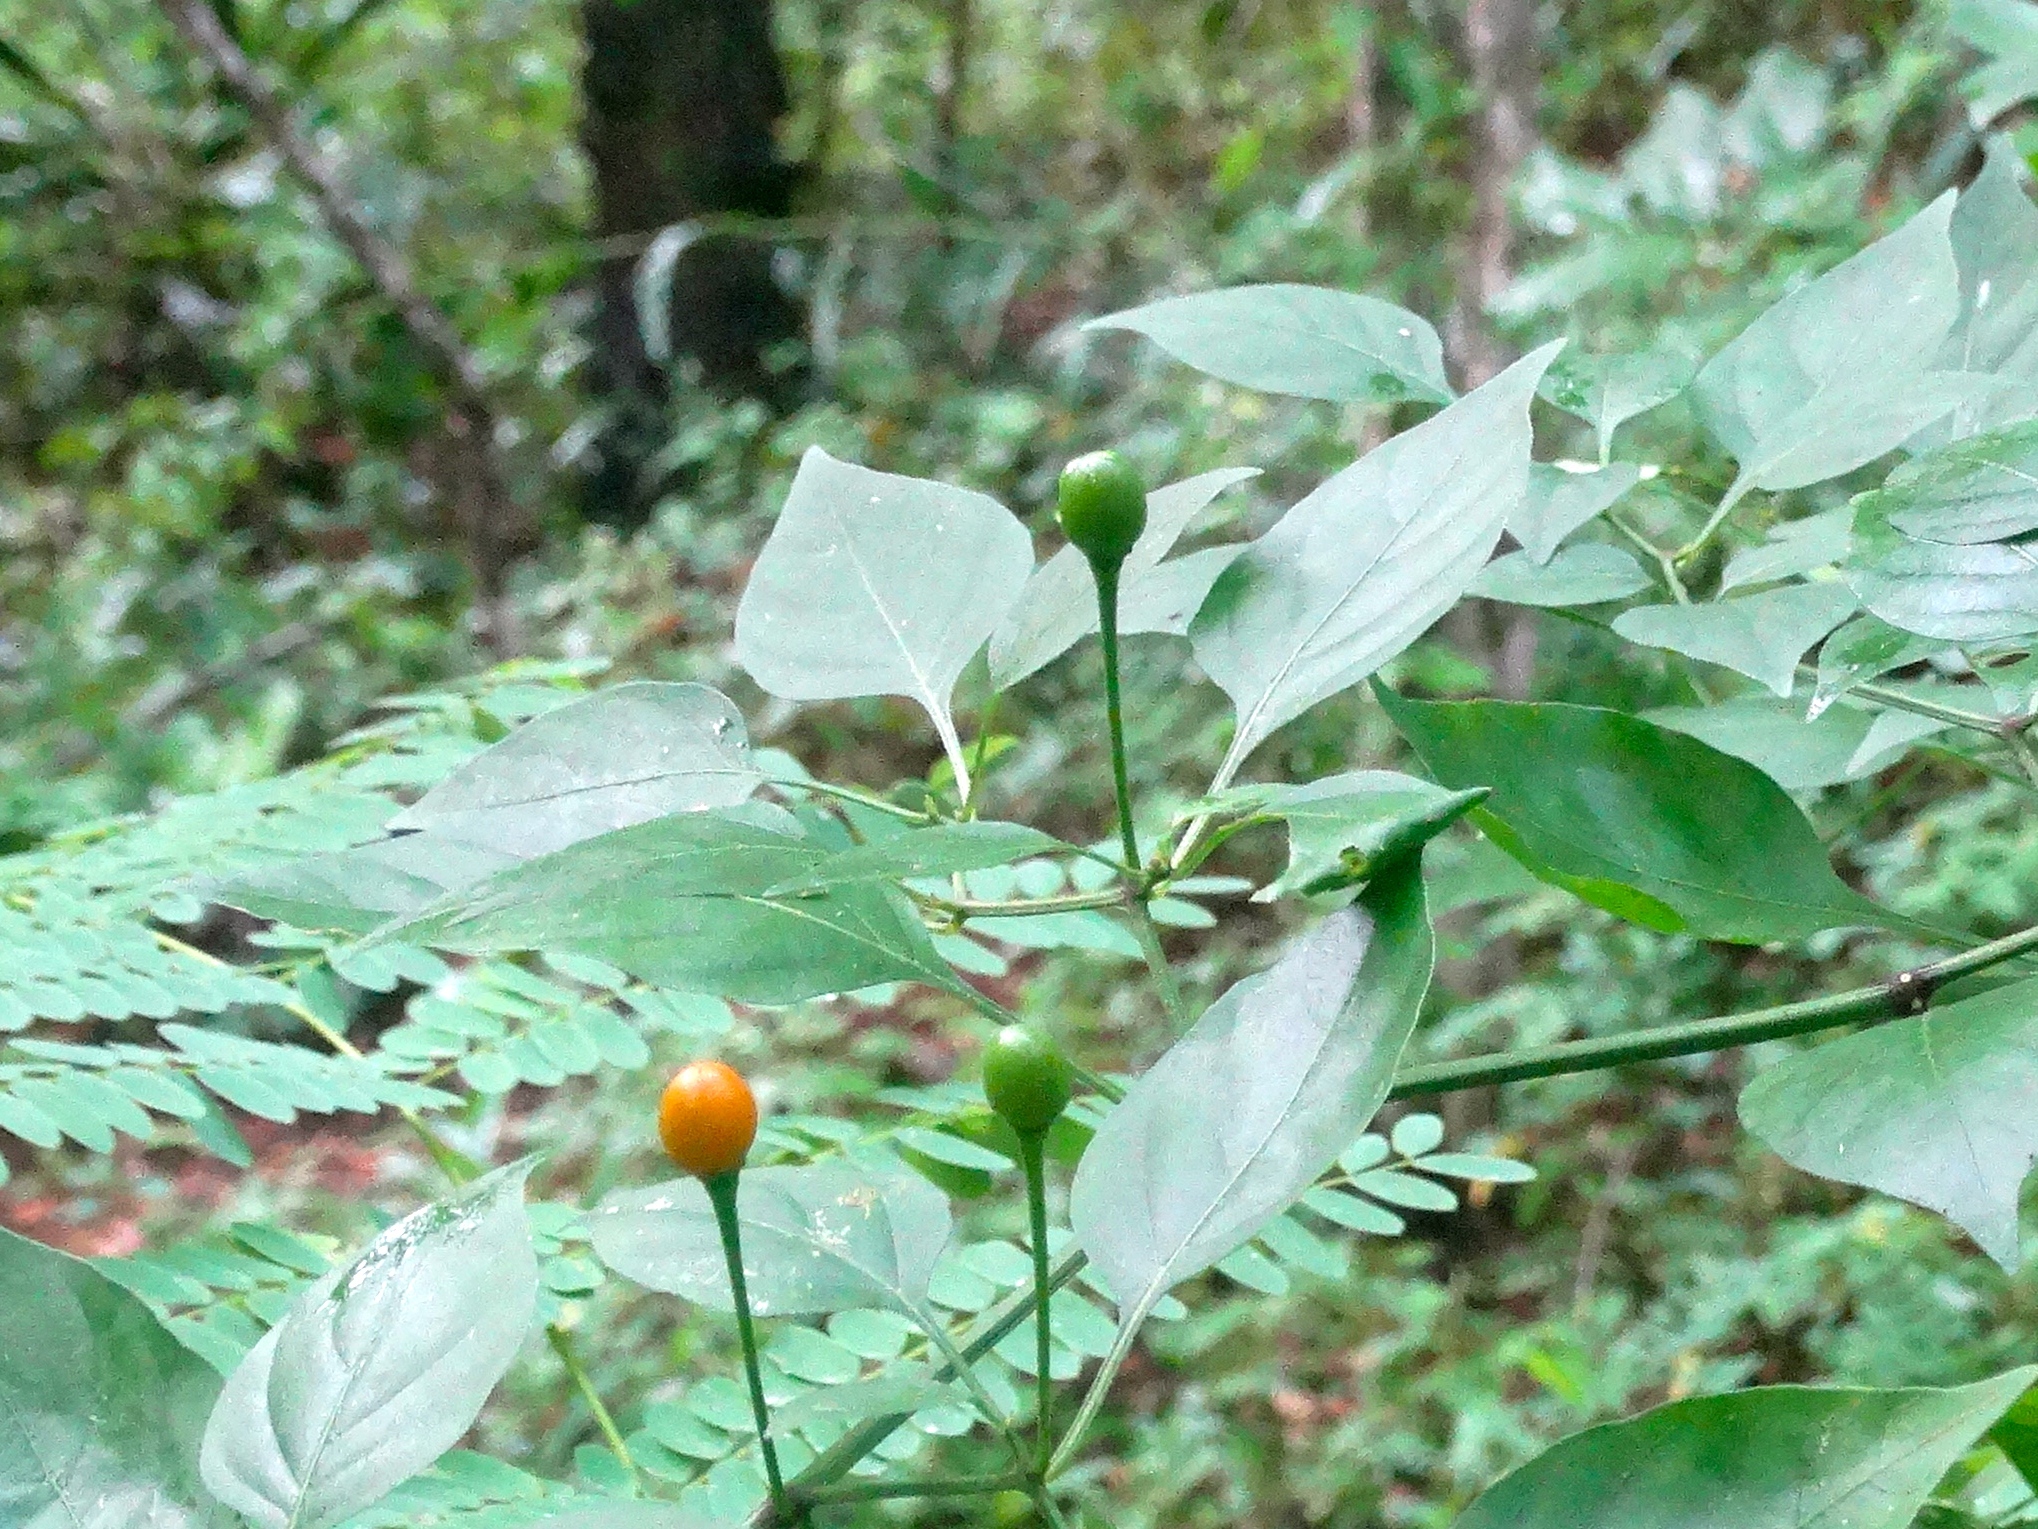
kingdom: Plantae
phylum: Tracheophyta
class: Magnoliopsida
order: Solanales
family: Solanaceae
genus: Capsicum
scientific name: Capsicum annuum
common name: Sweet pepper
